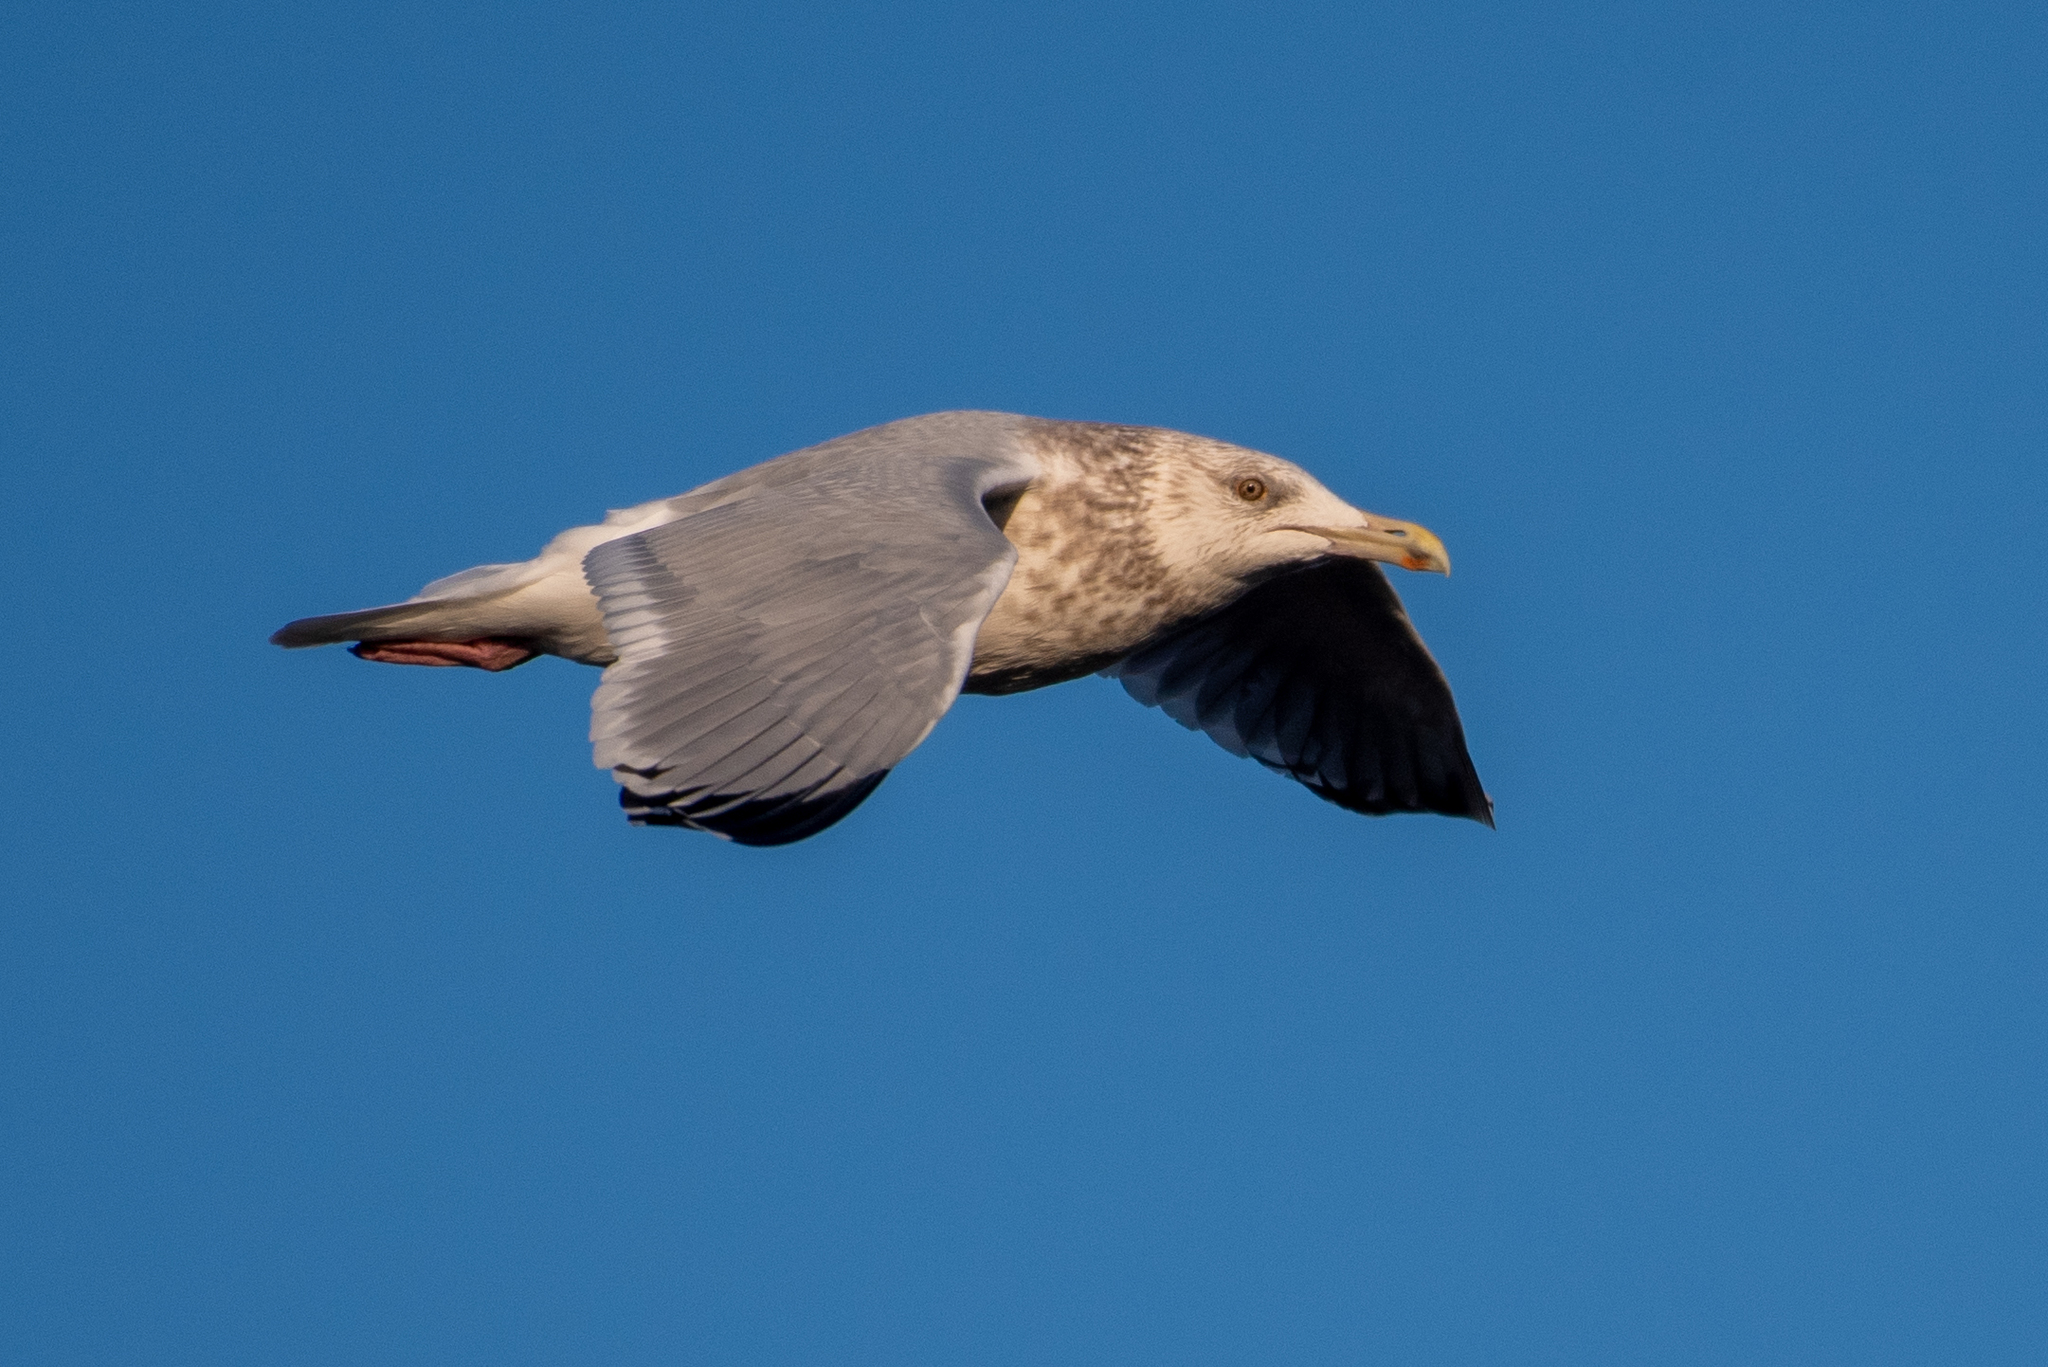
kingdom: Animalia
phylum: Chordata
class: Aves
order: Charadriiformes
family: Laridae
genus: Larus
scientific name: Larus argentatus
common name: Herring gull
